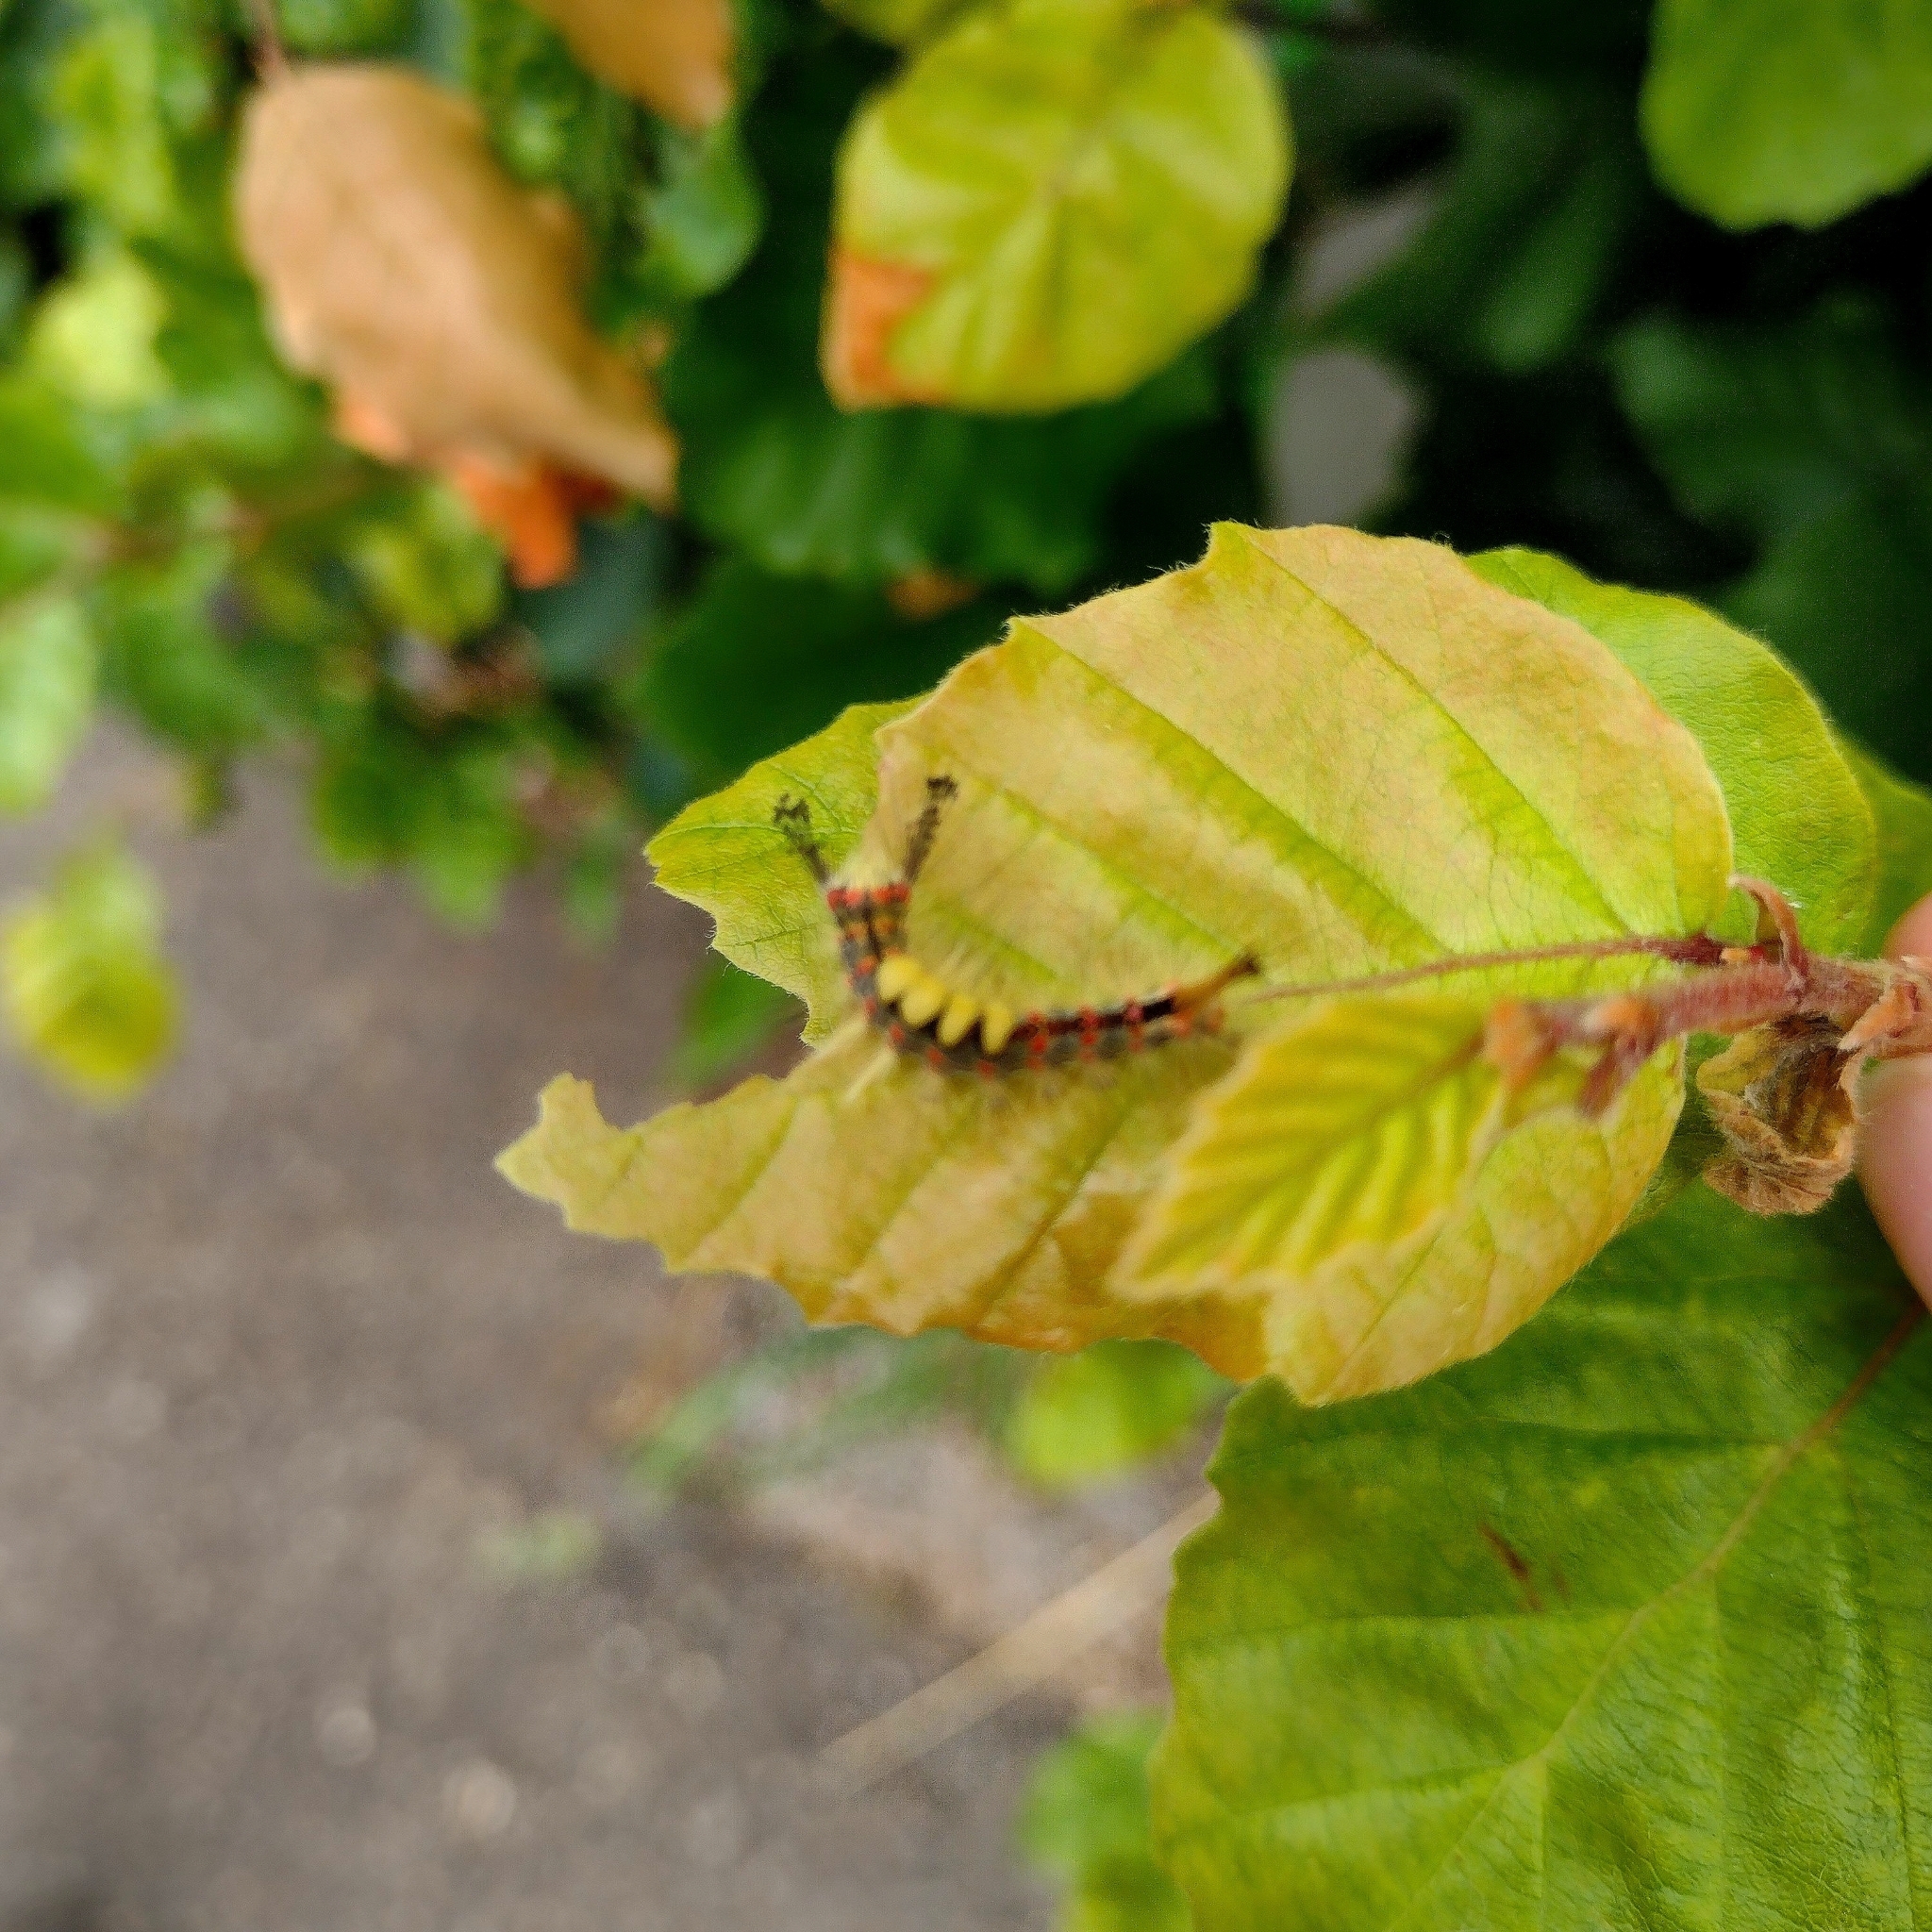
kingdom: Animalia
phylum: Arthropoda
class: Insecta
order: Lepidoptera
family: Erebidae
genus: Orgyia
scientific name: Orgyia antiqua
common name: Vapourer
